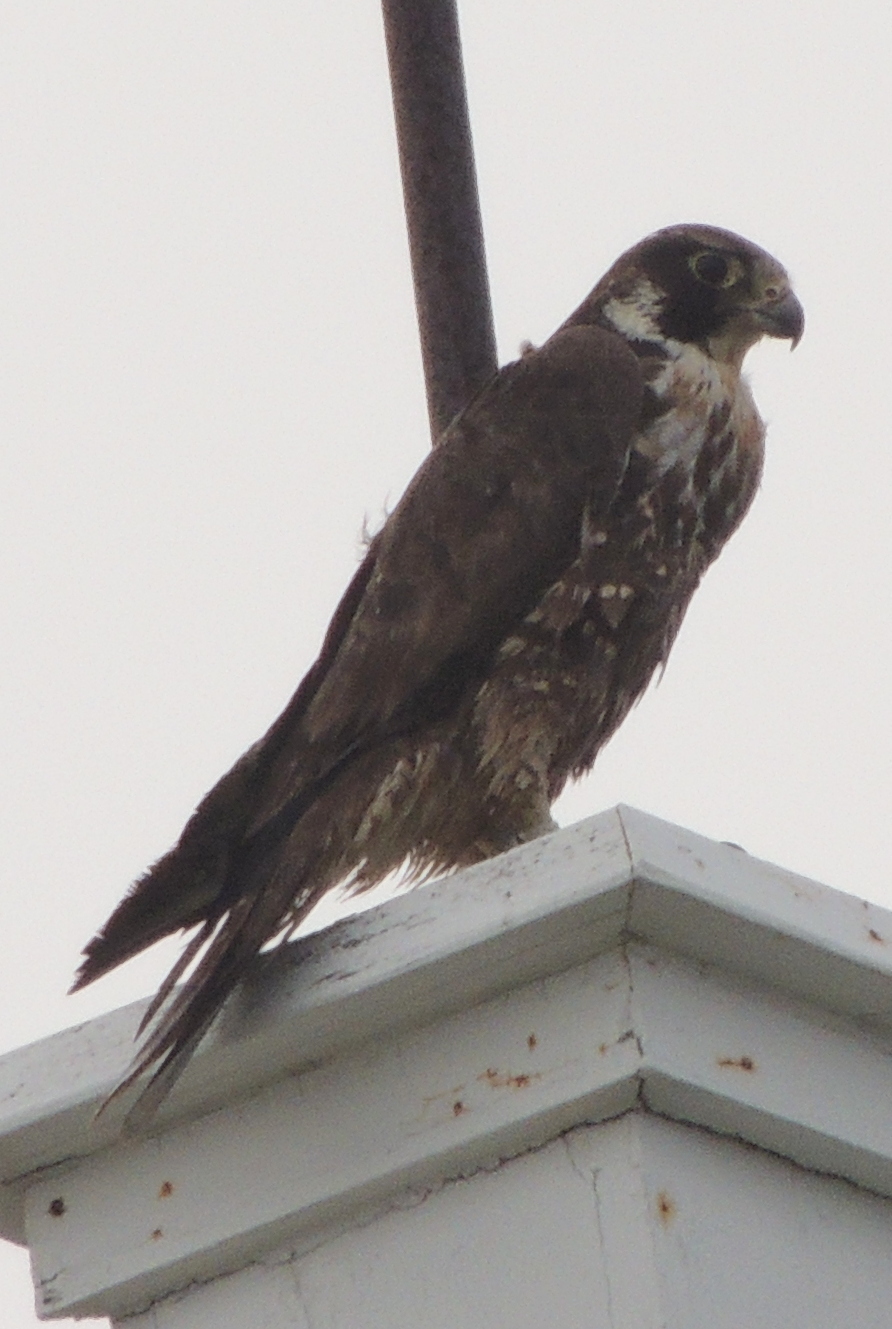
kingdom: Animalia
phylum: Chordata
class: Aves
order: Falconiformes
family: Falconidae
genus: Falco
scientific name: Falco peregrinus
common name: Peregrine falcon
